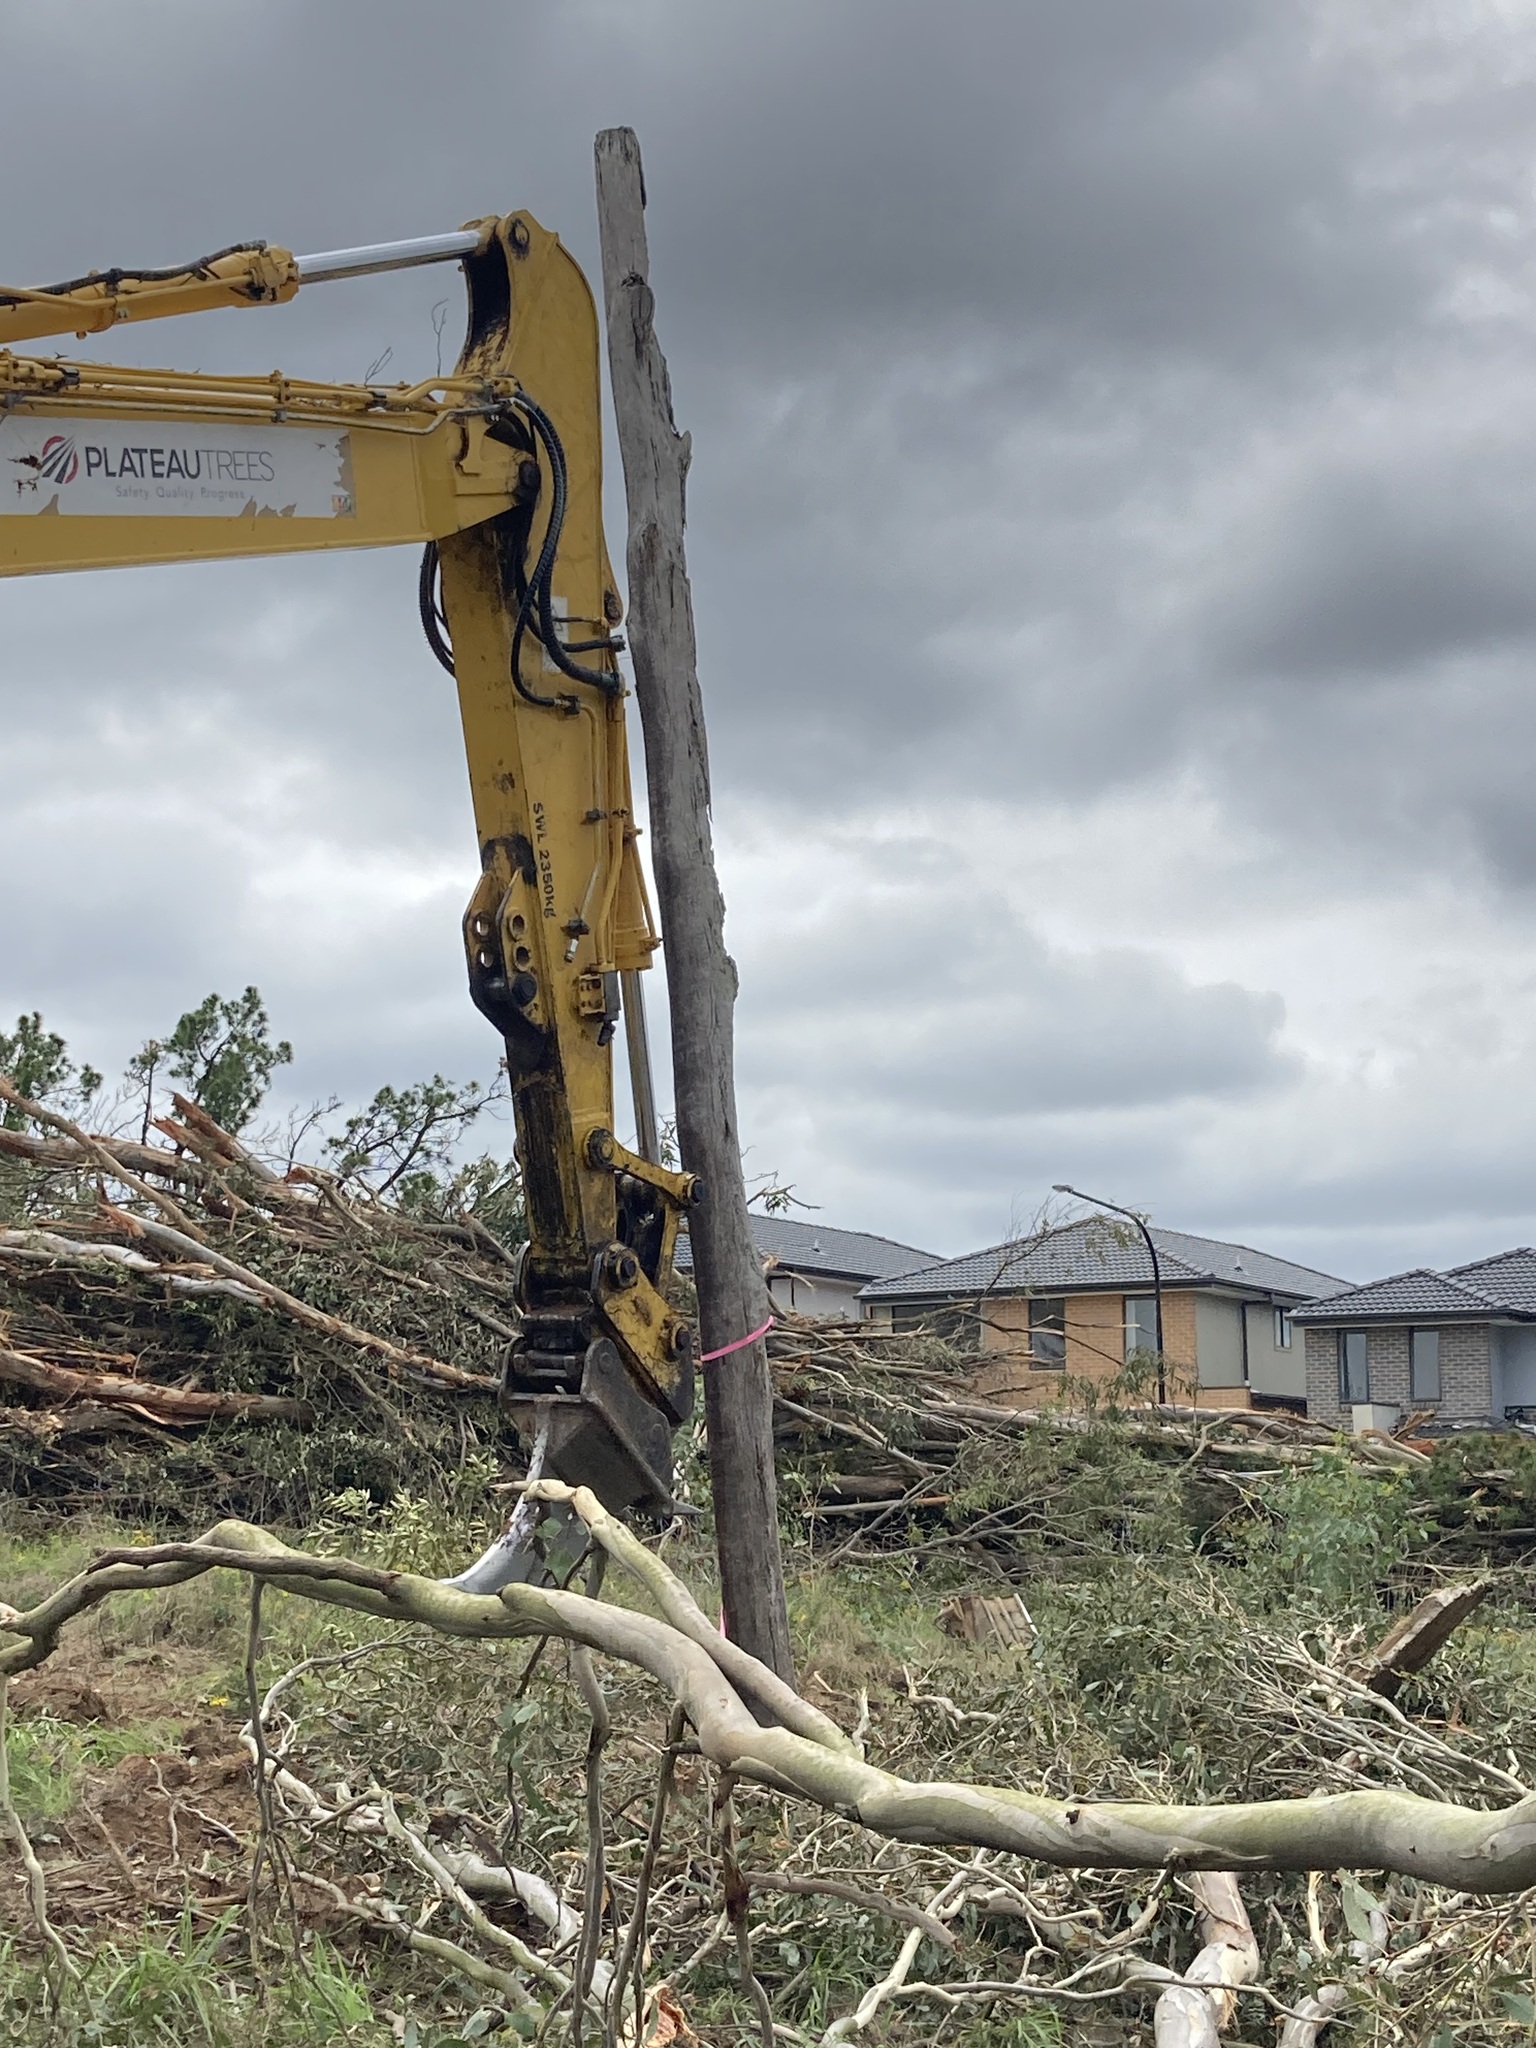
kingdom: Plantae
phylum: Tracheophyta
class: Magnoliopsida
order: Myrtales
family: Myrtaceae
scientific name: Myrtaceae
